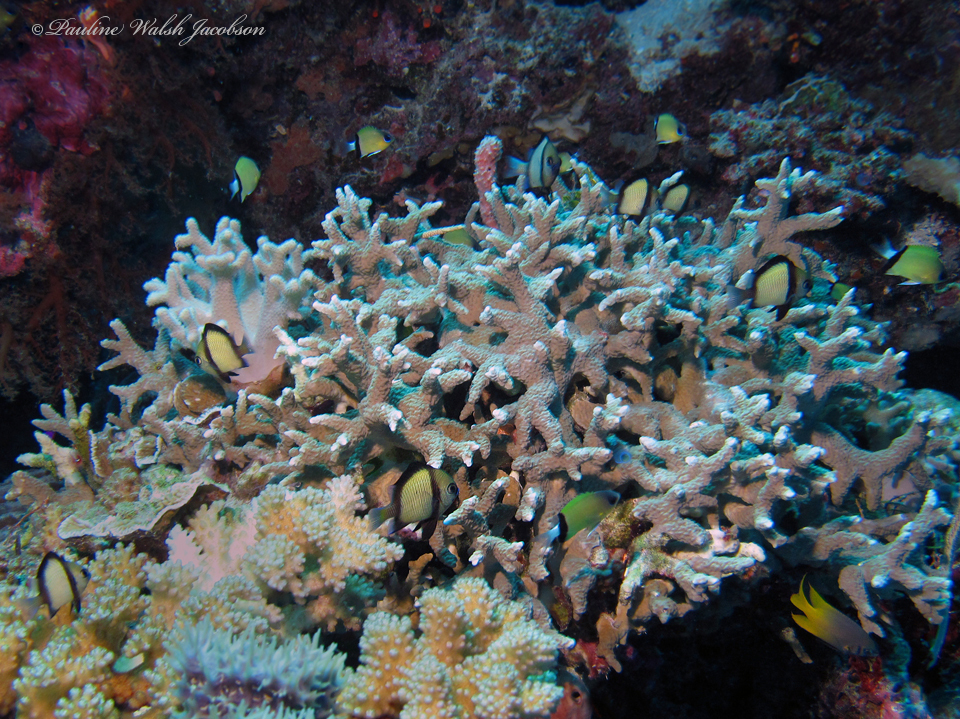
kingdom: Animalia
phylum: Chordata
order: Perciformes
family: Pomacentridae
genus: Dascyllus
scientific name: Dascyllus reticulatus
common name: Reticulated dascyllus
